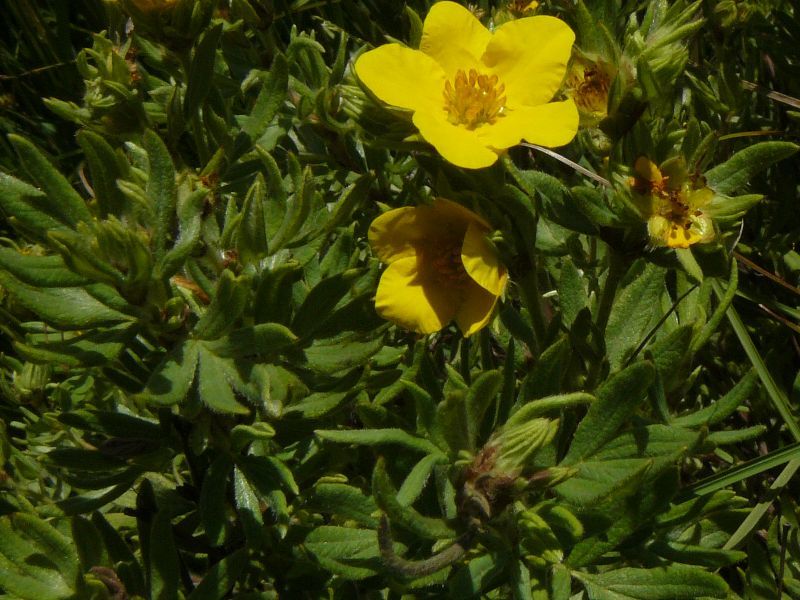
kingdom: Plantae
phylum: Tracheophyta
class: Magnoliopsida
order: Rosales
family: Rosaceae
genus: Dasiphora
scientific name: Dasiphora fruticosa
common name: Shrubby cinquefoil
